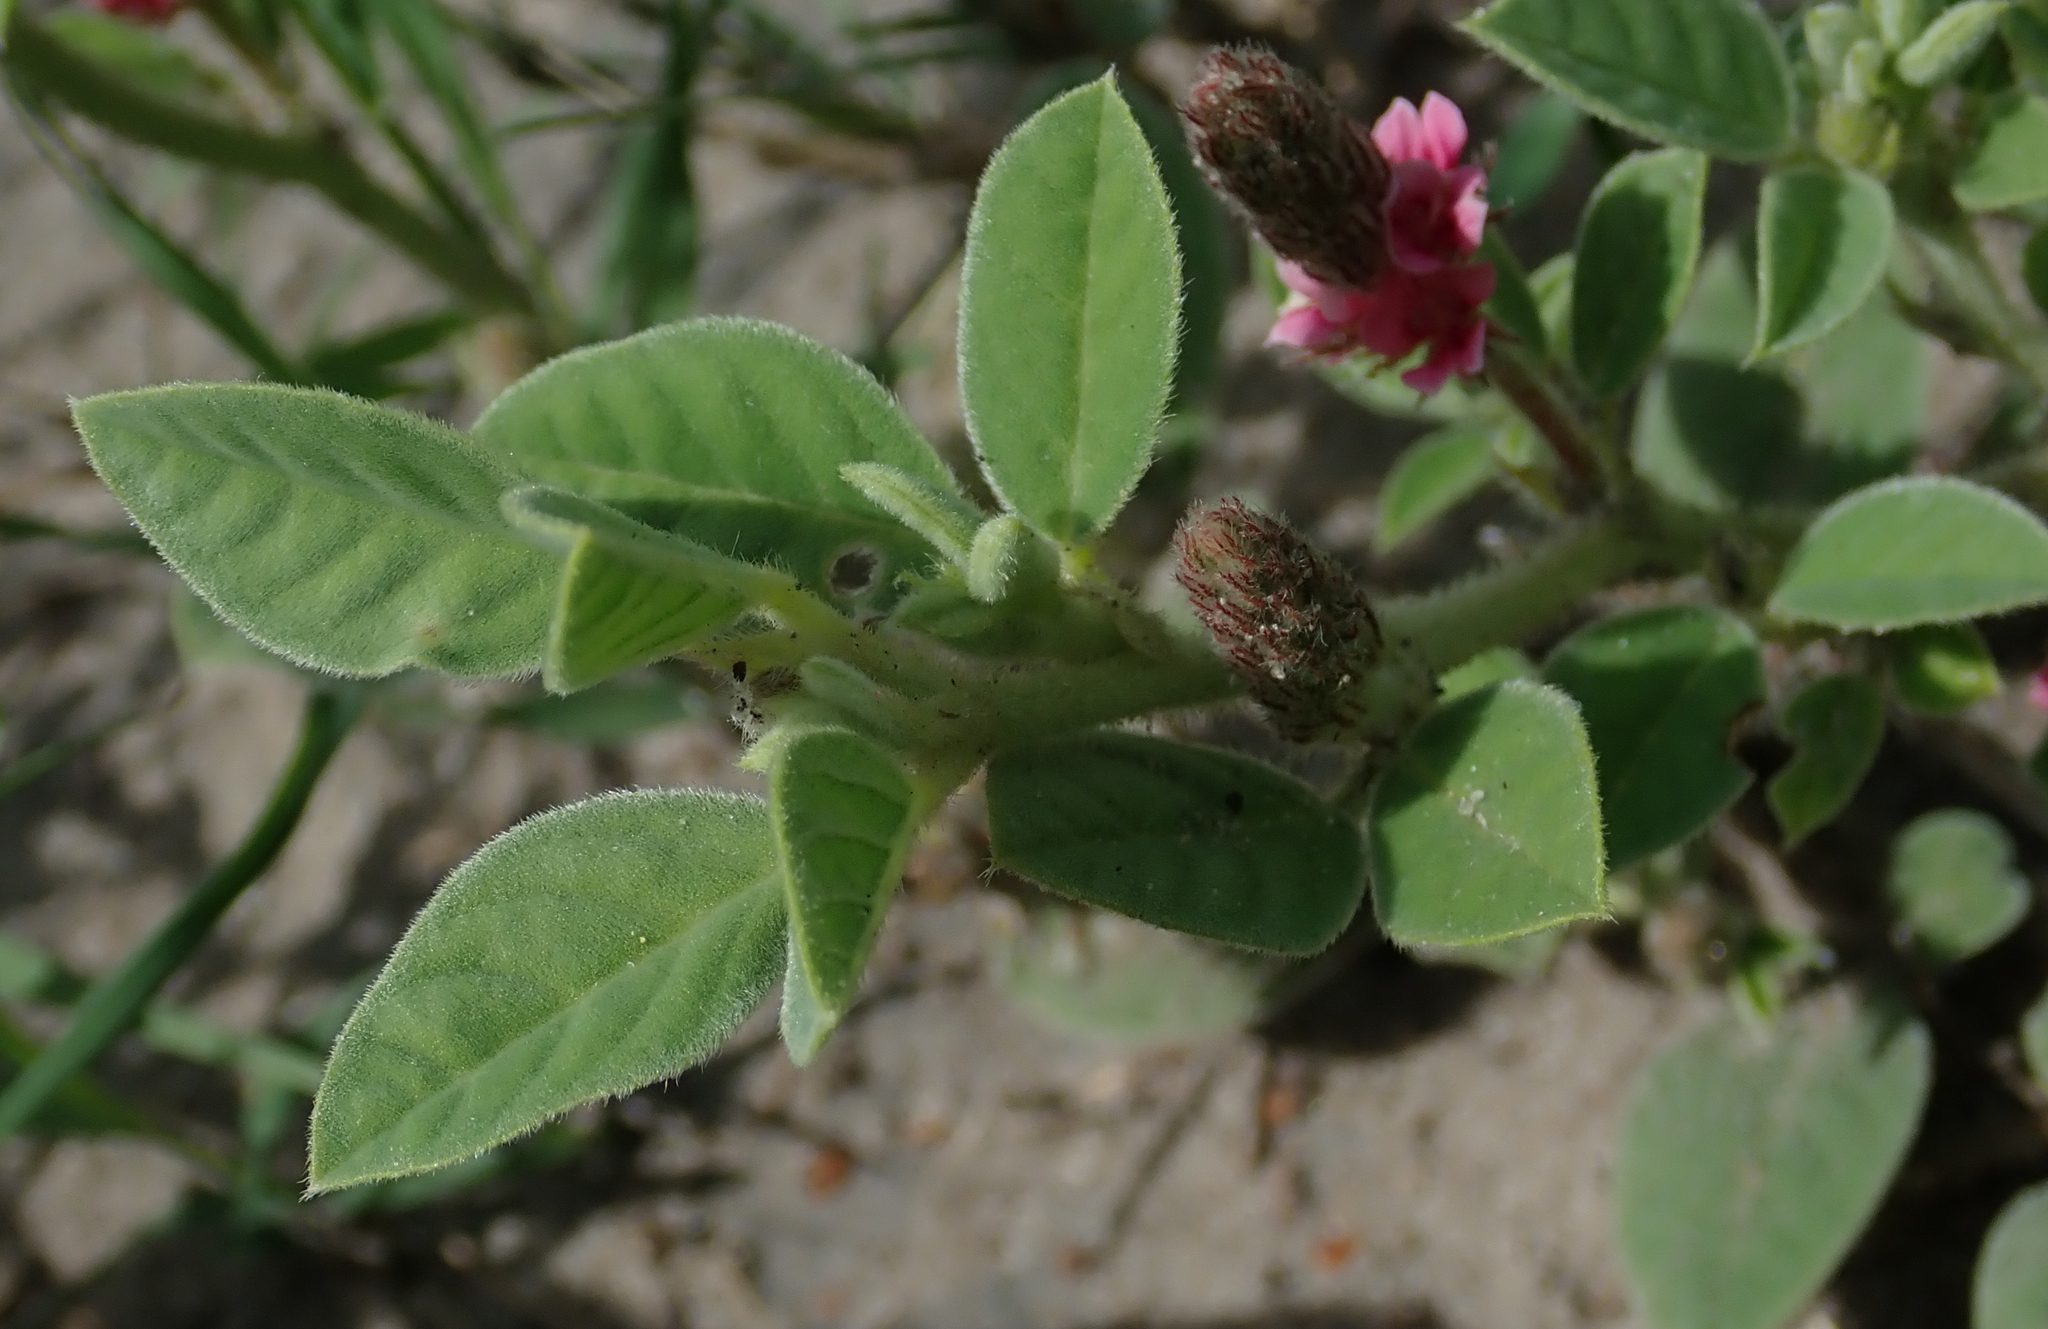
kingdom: Plantae
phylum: Tracheophyta
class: Magnoliopsida
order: Fabales
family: Fabaceae
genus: Indigofera
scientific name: Indigofera flavicans
